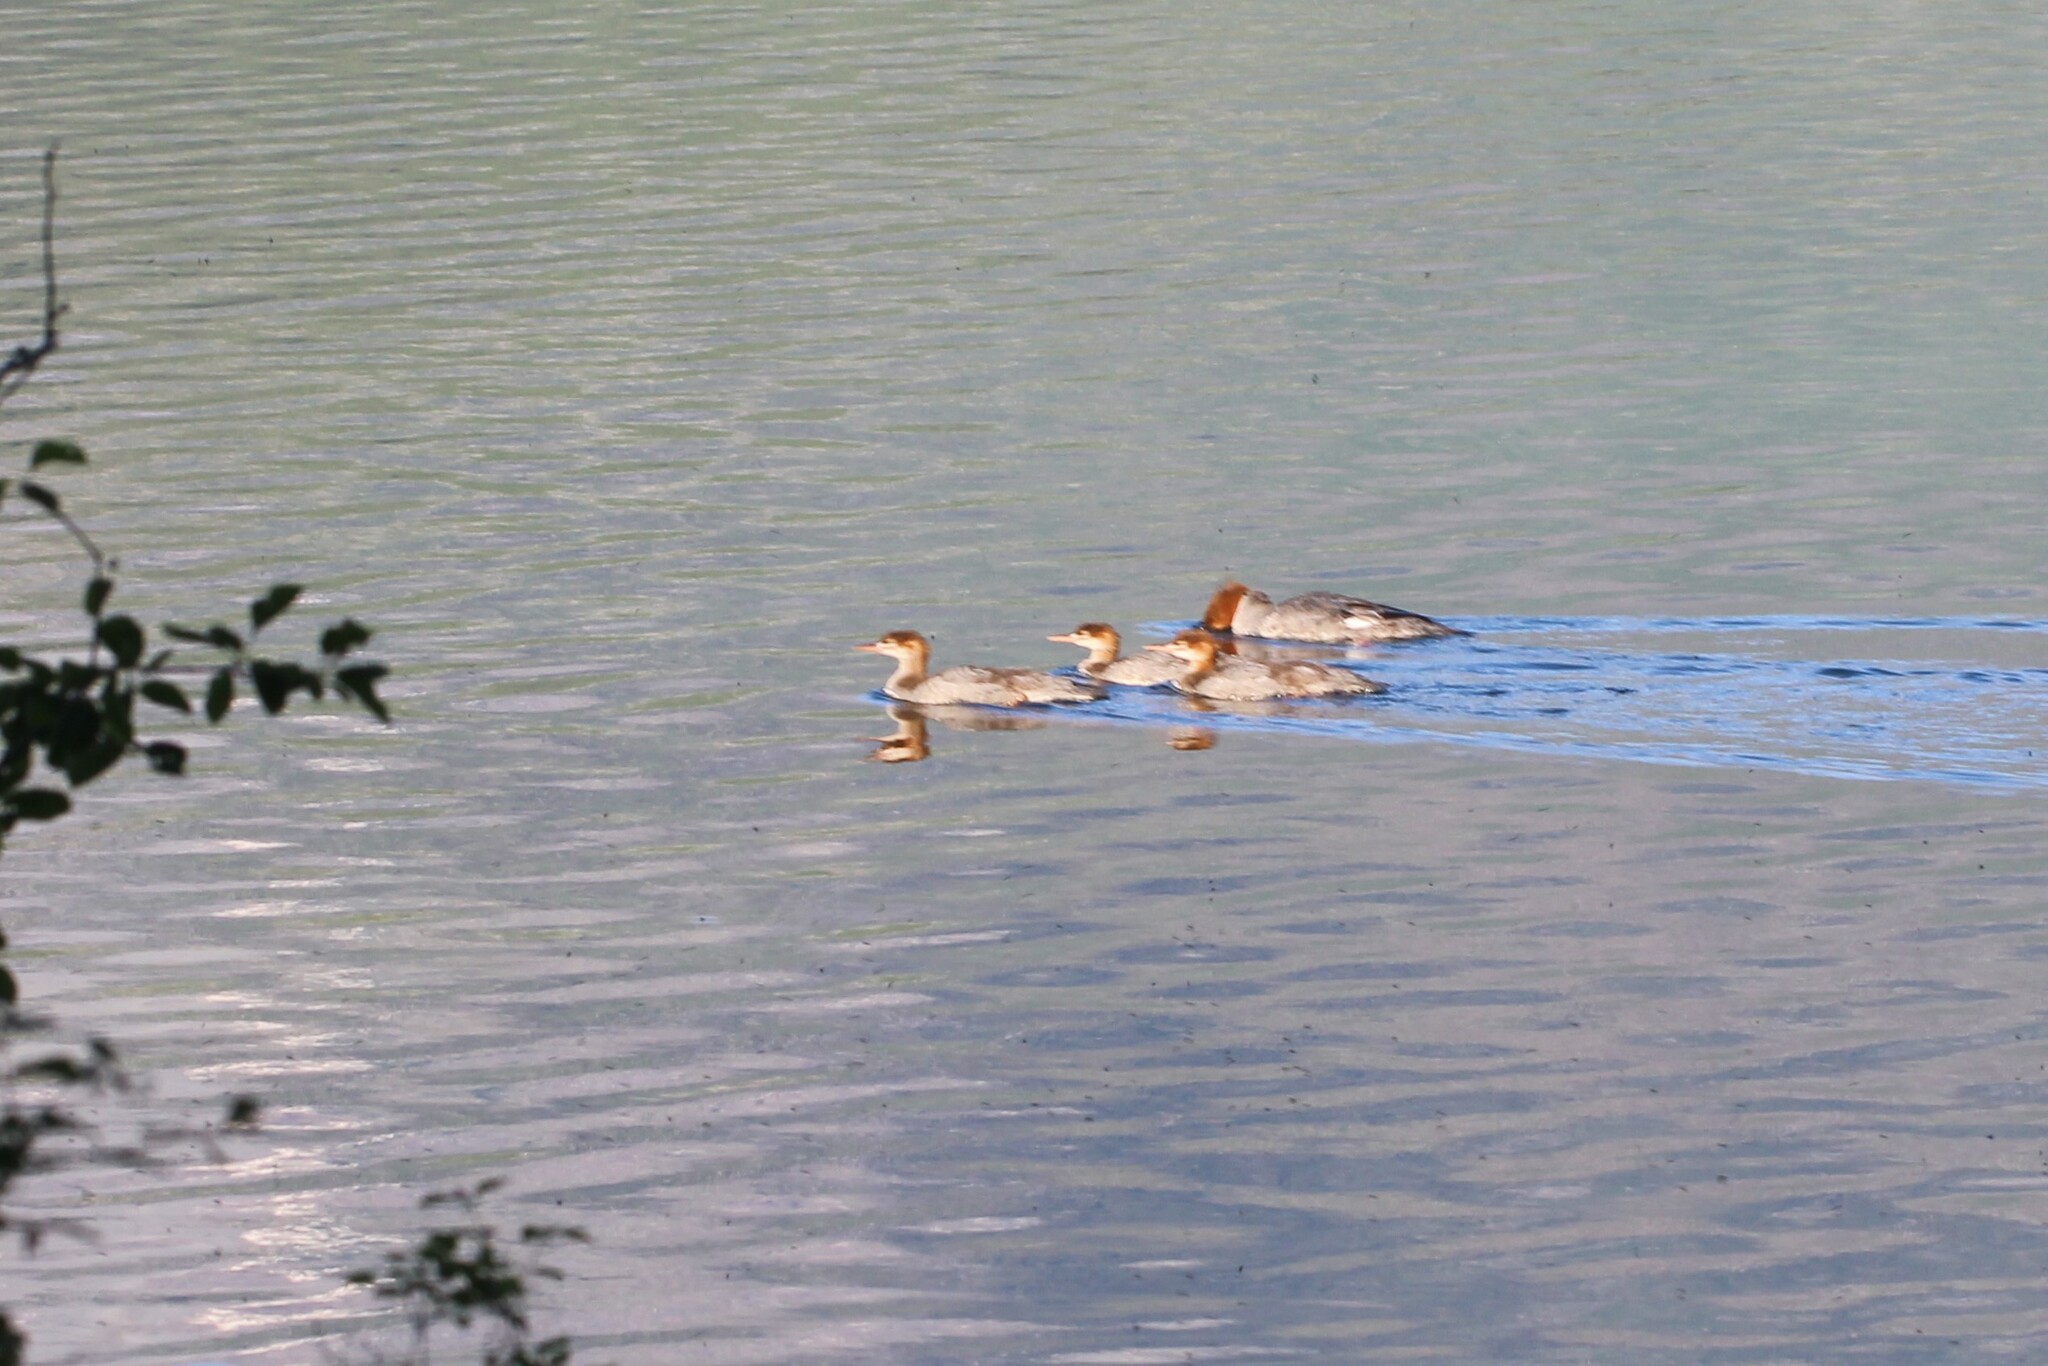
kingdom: Animalia
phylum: Chordata
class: Aves
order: Anseriformes
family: Anatidae
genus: Mergus
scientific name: Mergus merganser
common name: Common merganser
